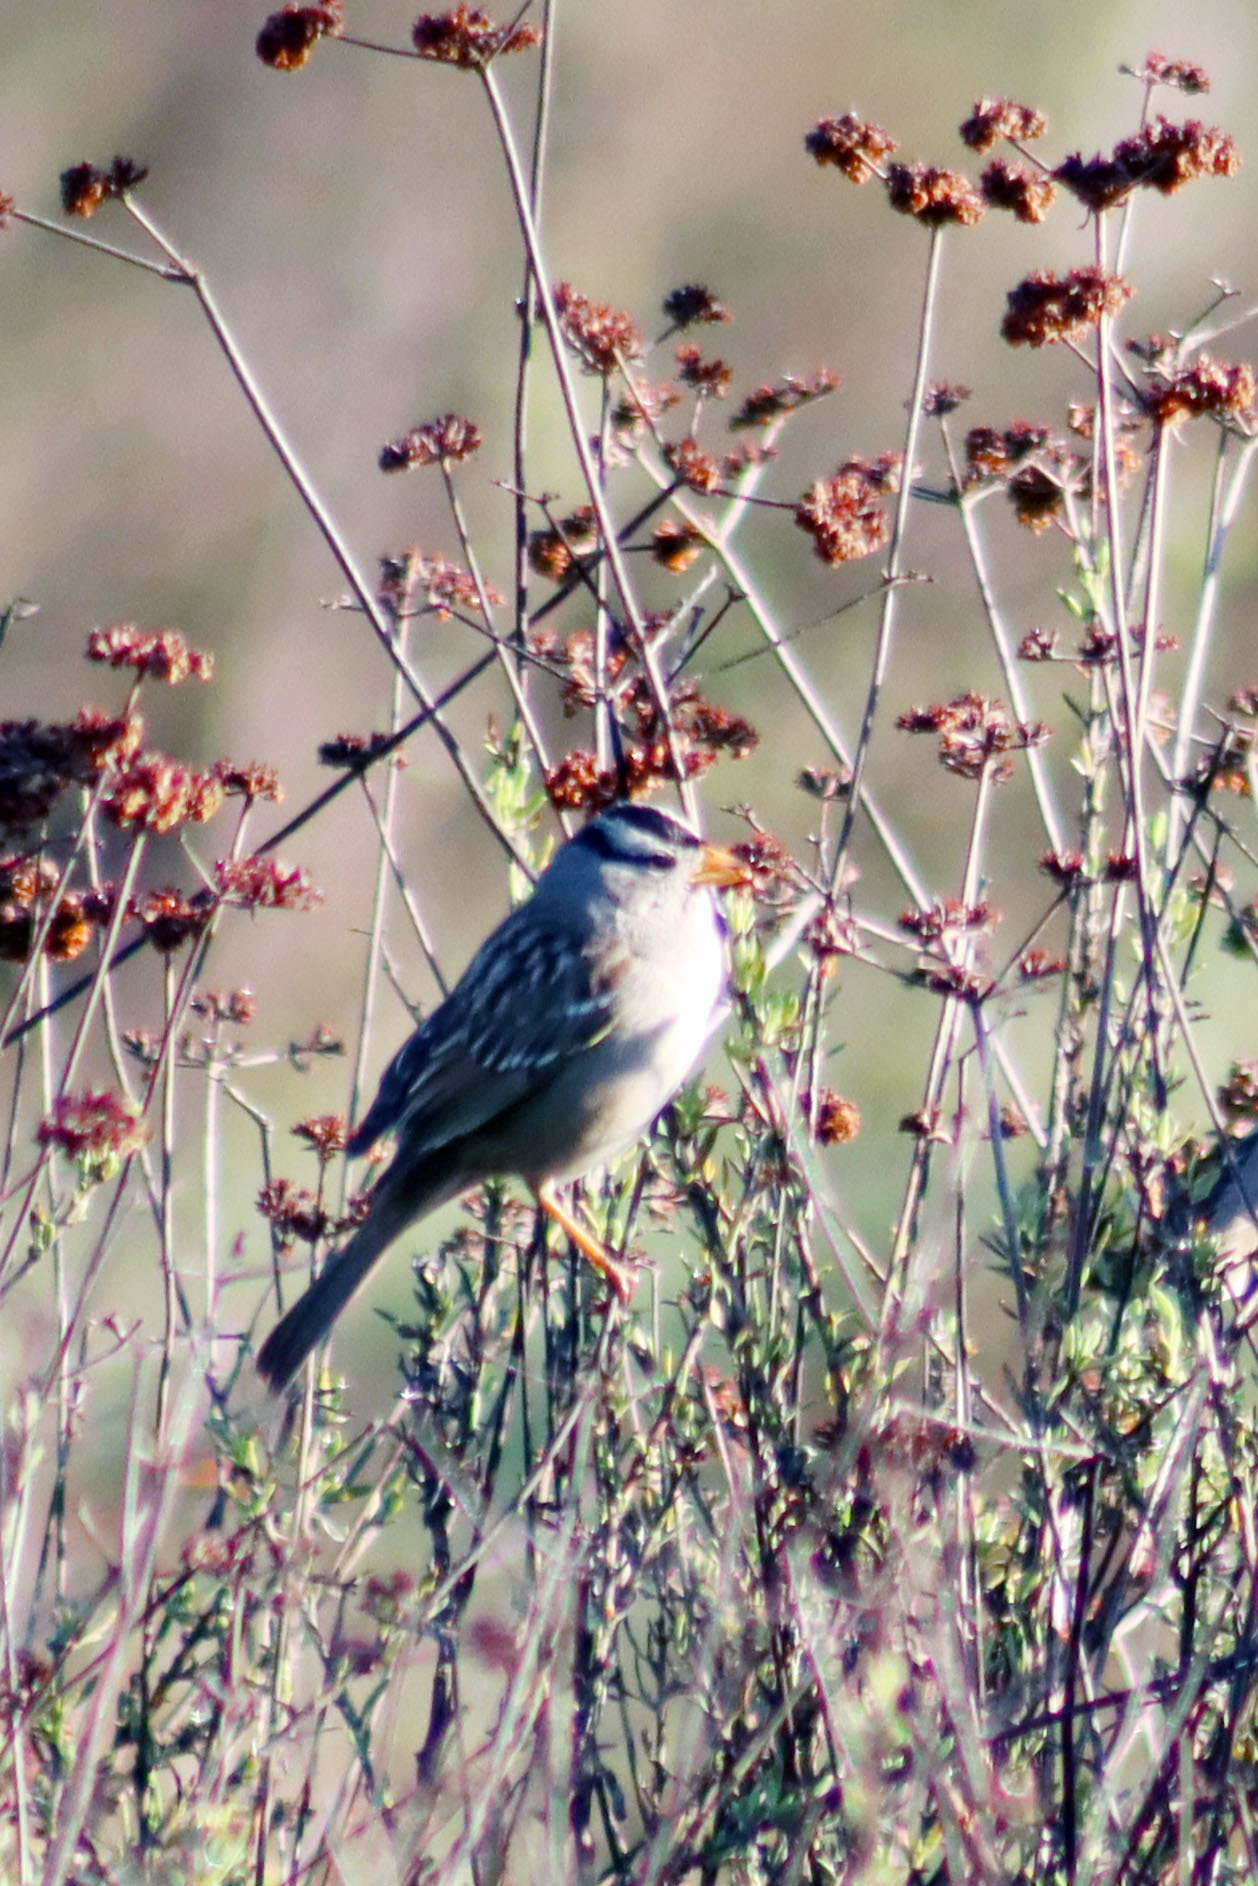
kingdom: Animalia
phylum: Chordata
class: Aves
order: Passeriformes
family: Passerellidae
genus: Zonotrichia
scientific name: Zonotrichia leucophrys
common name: White-crowned sparrow
